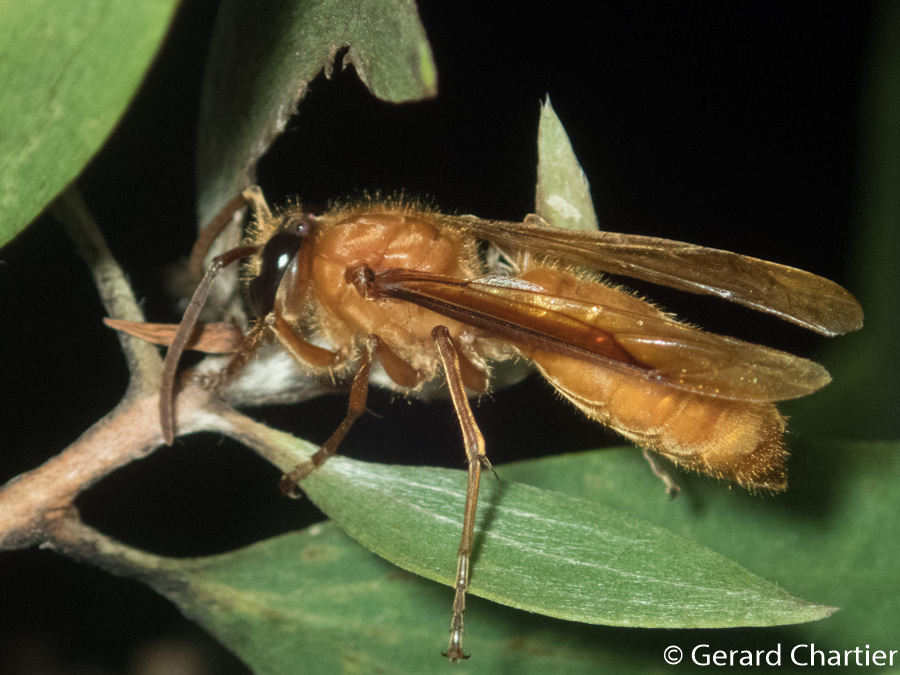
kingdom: Animalia
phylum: Arthropoda
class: Insecta
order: Hymenoptera
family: Vespidae
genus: Provespa
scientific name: Provespa barthelemyi
